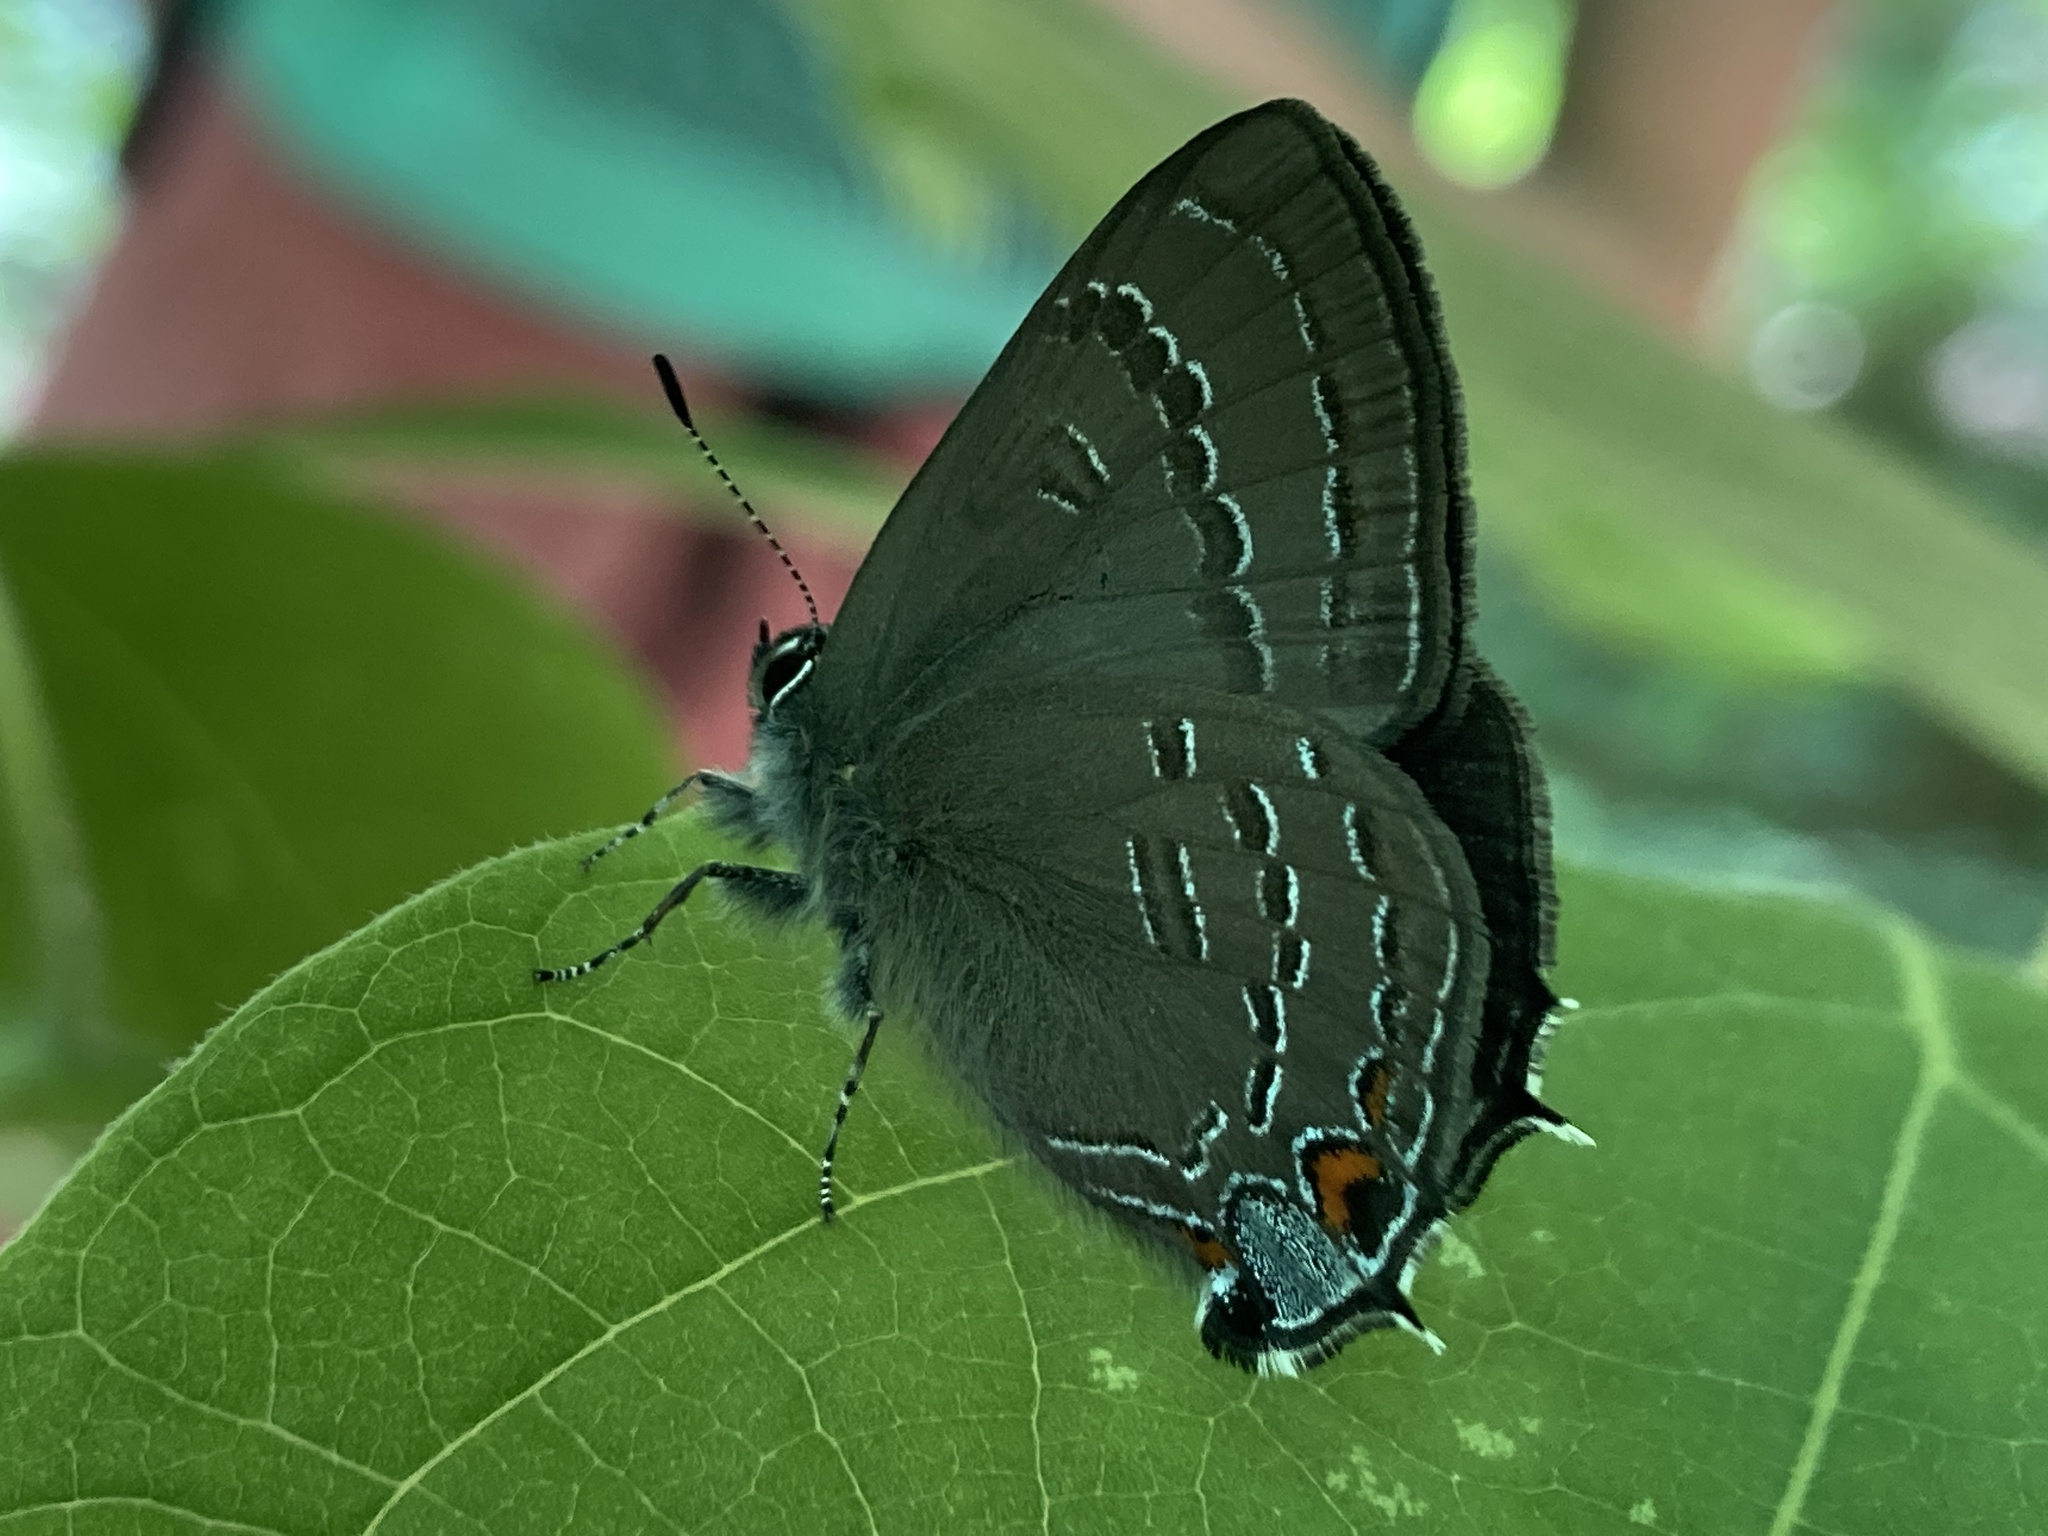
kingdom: Animalia
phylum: Arthropoda
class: Insecta
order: Lepidoptera
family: Lycaenidae
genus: Satyrium
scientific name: Satyrium calanus
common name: Banded hairstreak
